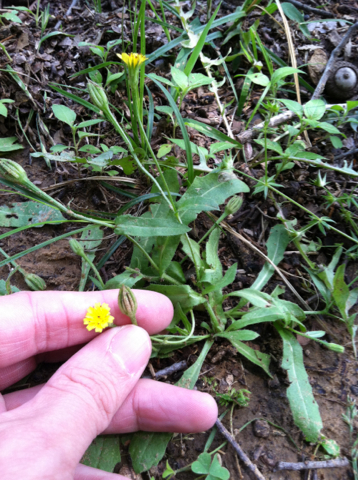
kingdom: Plantae
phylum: Tracheophyta
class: Magnoliopsida
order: Asterales
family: Asteraceae
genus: Hedypnois
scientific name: Hedypnois rhagadioloides
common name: Cretan weed
